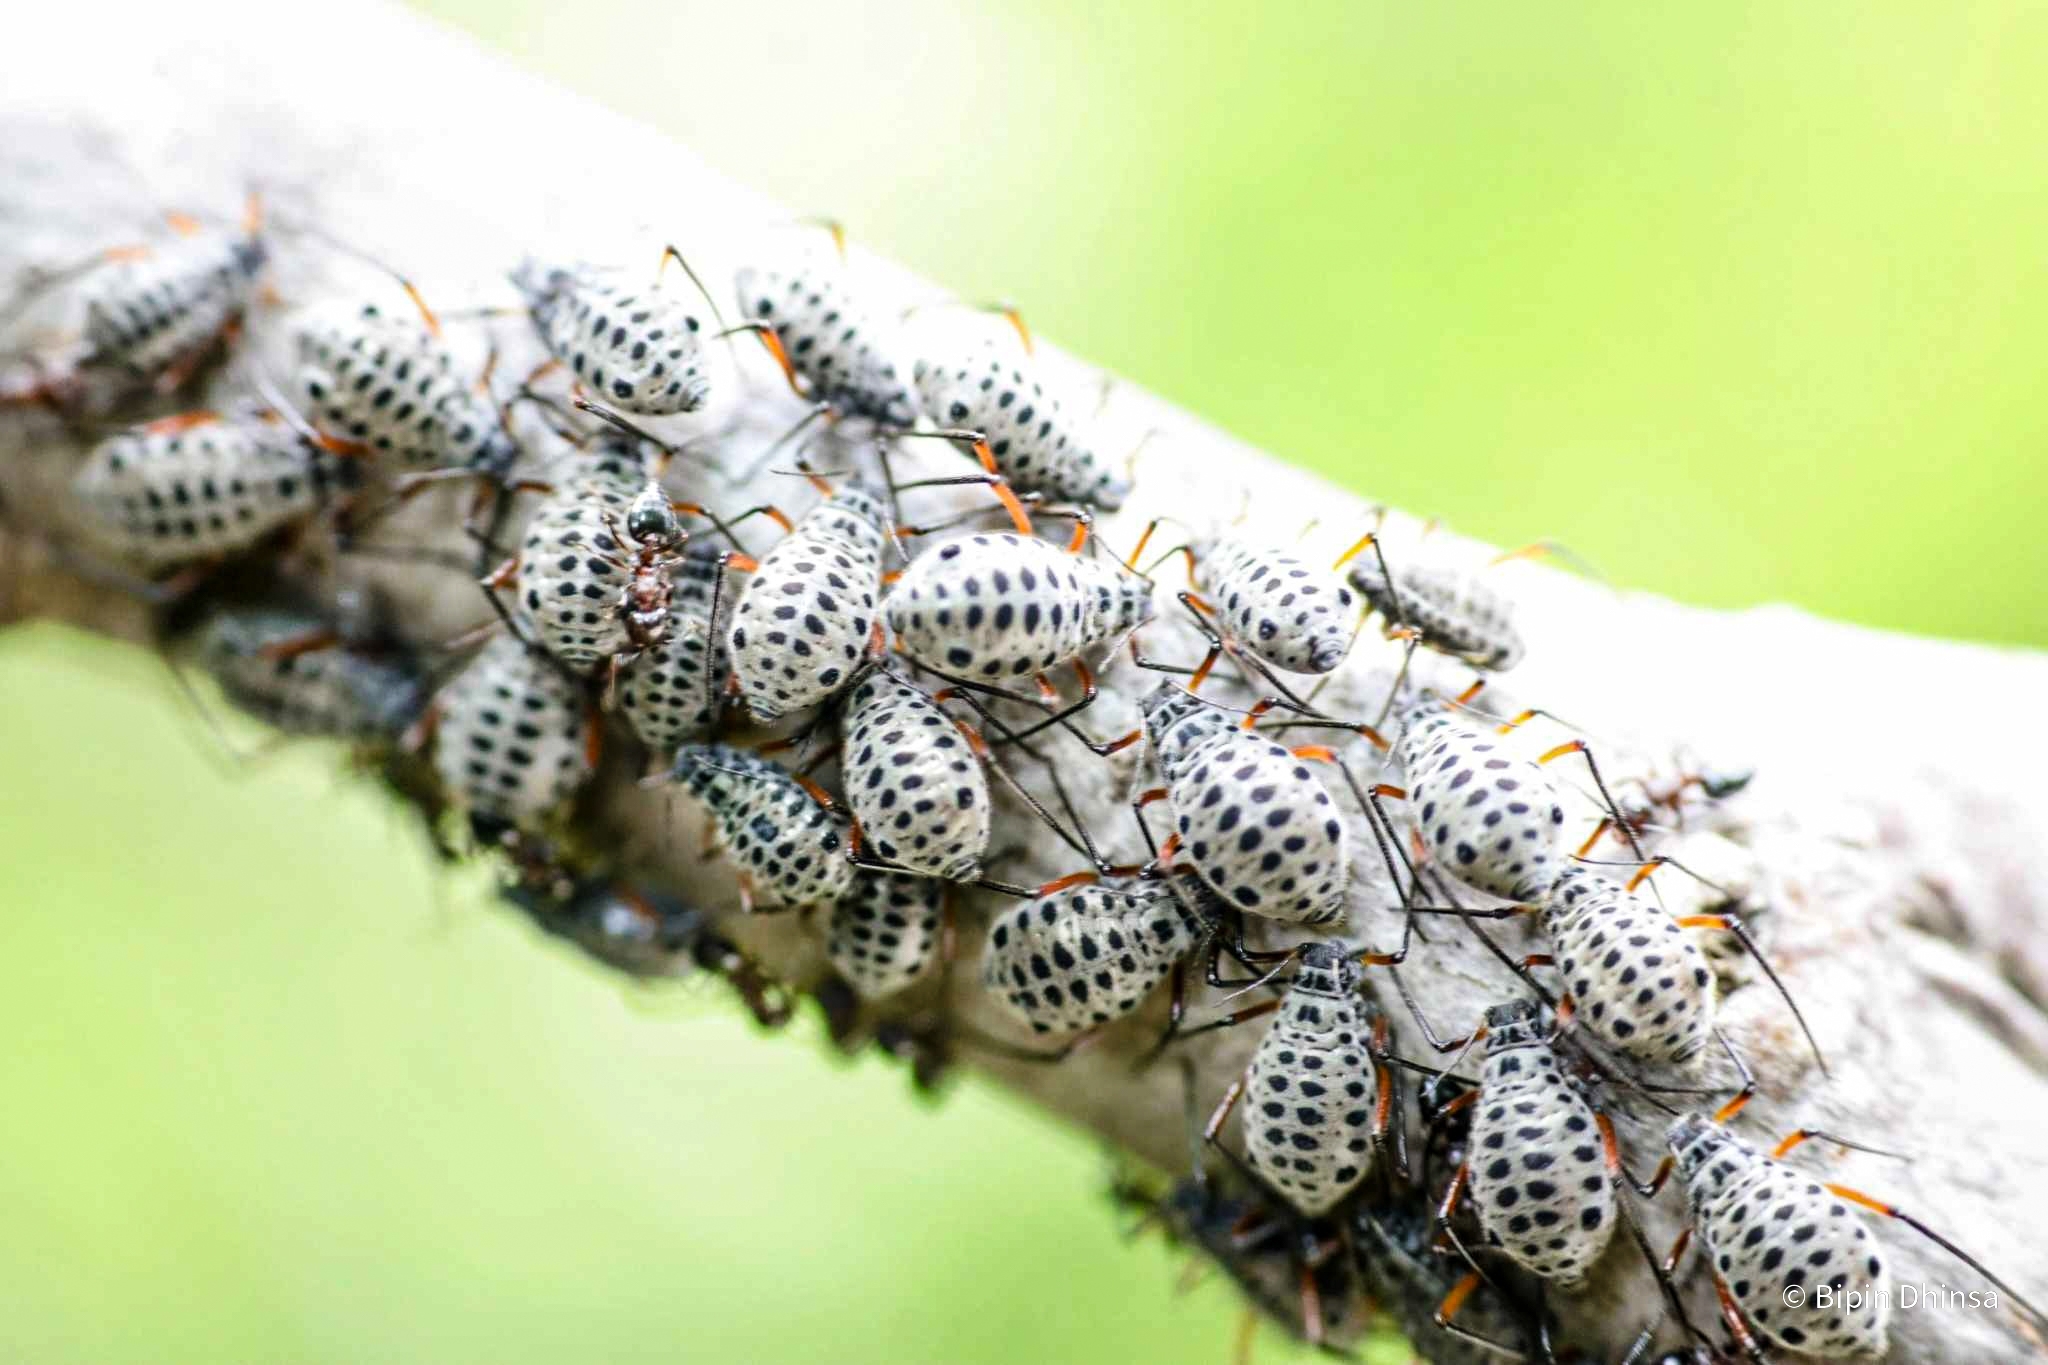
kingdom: Animalia
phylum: Arthropoda
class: Insecta
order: Hemiptera
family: Aphididae
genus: Longistigma
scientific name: Longistigma caryae
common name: Giant bark aphid
